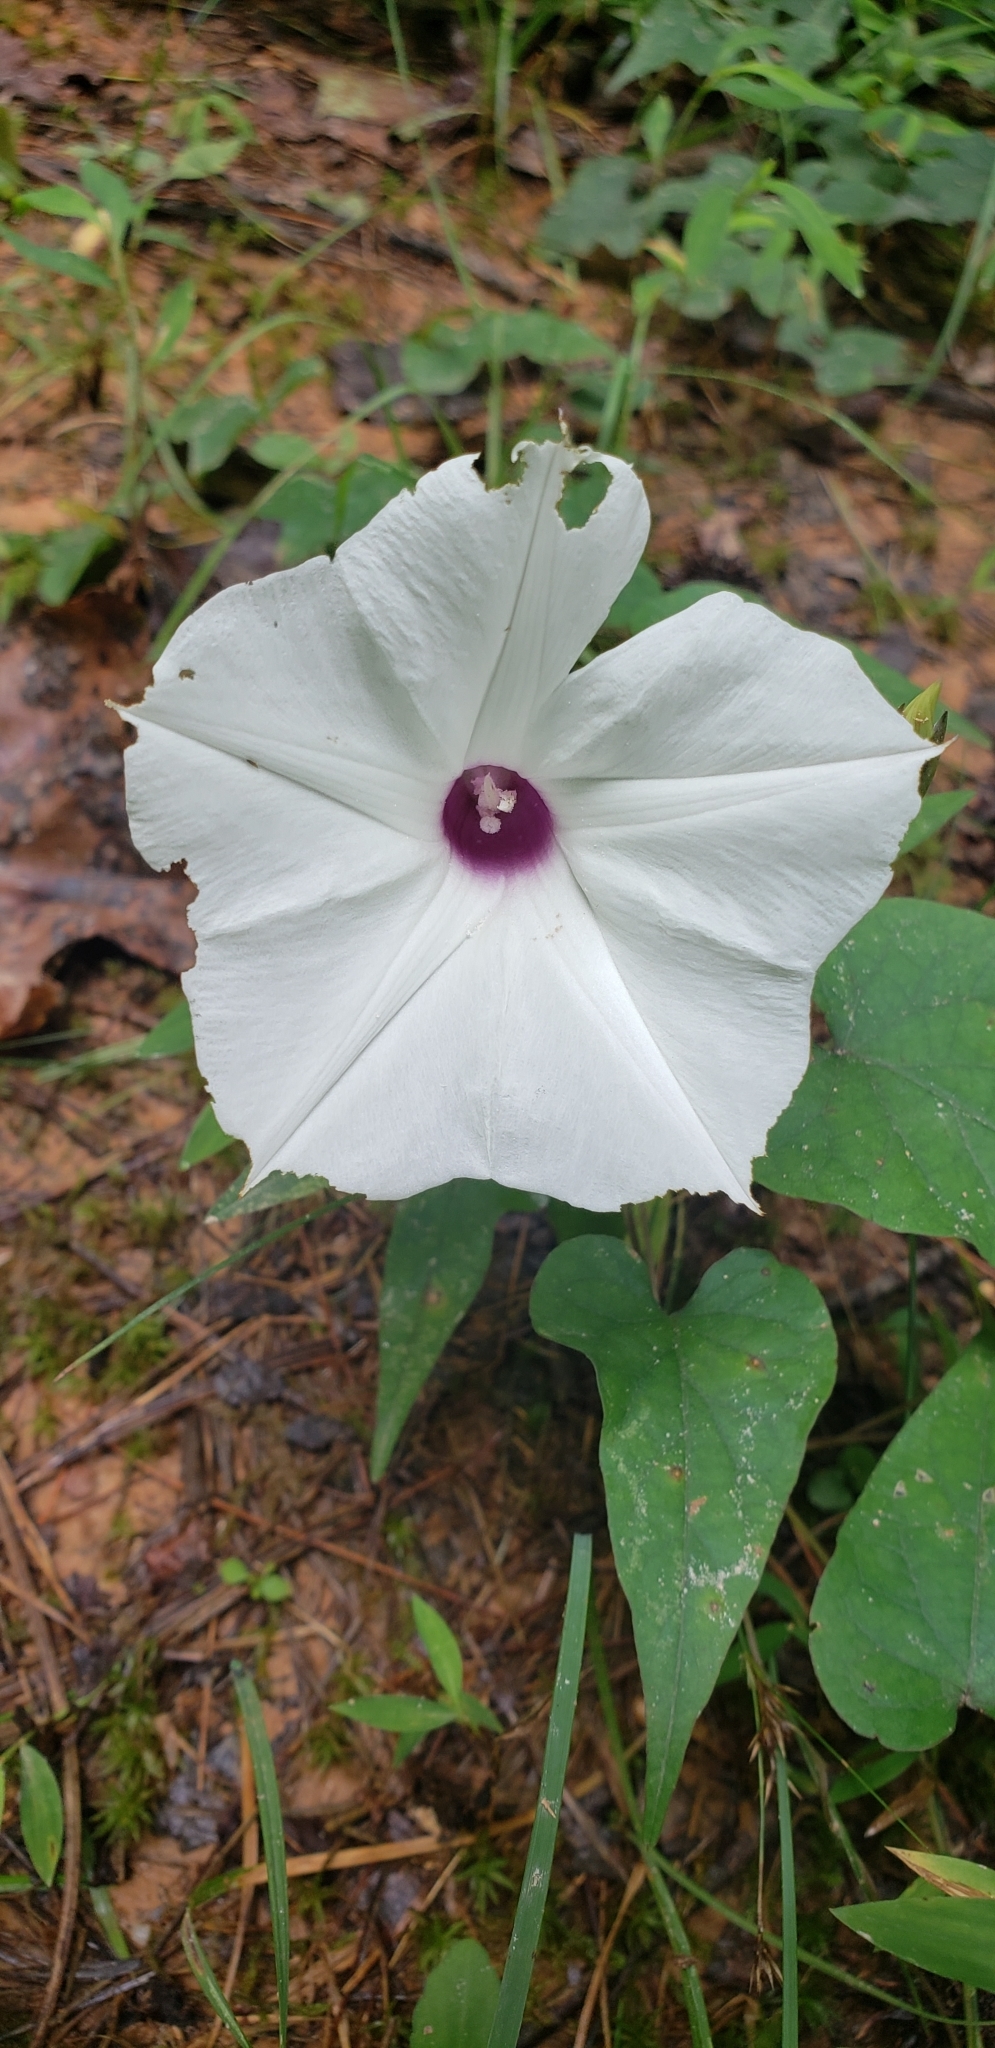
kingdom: Plantae
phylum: Tracheophyta
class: Magnoliopsida
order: Solanales
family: Convolvulaceae
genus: Ipomoea
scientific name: Ipomoea pandurata
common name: Man-of-the-earth
